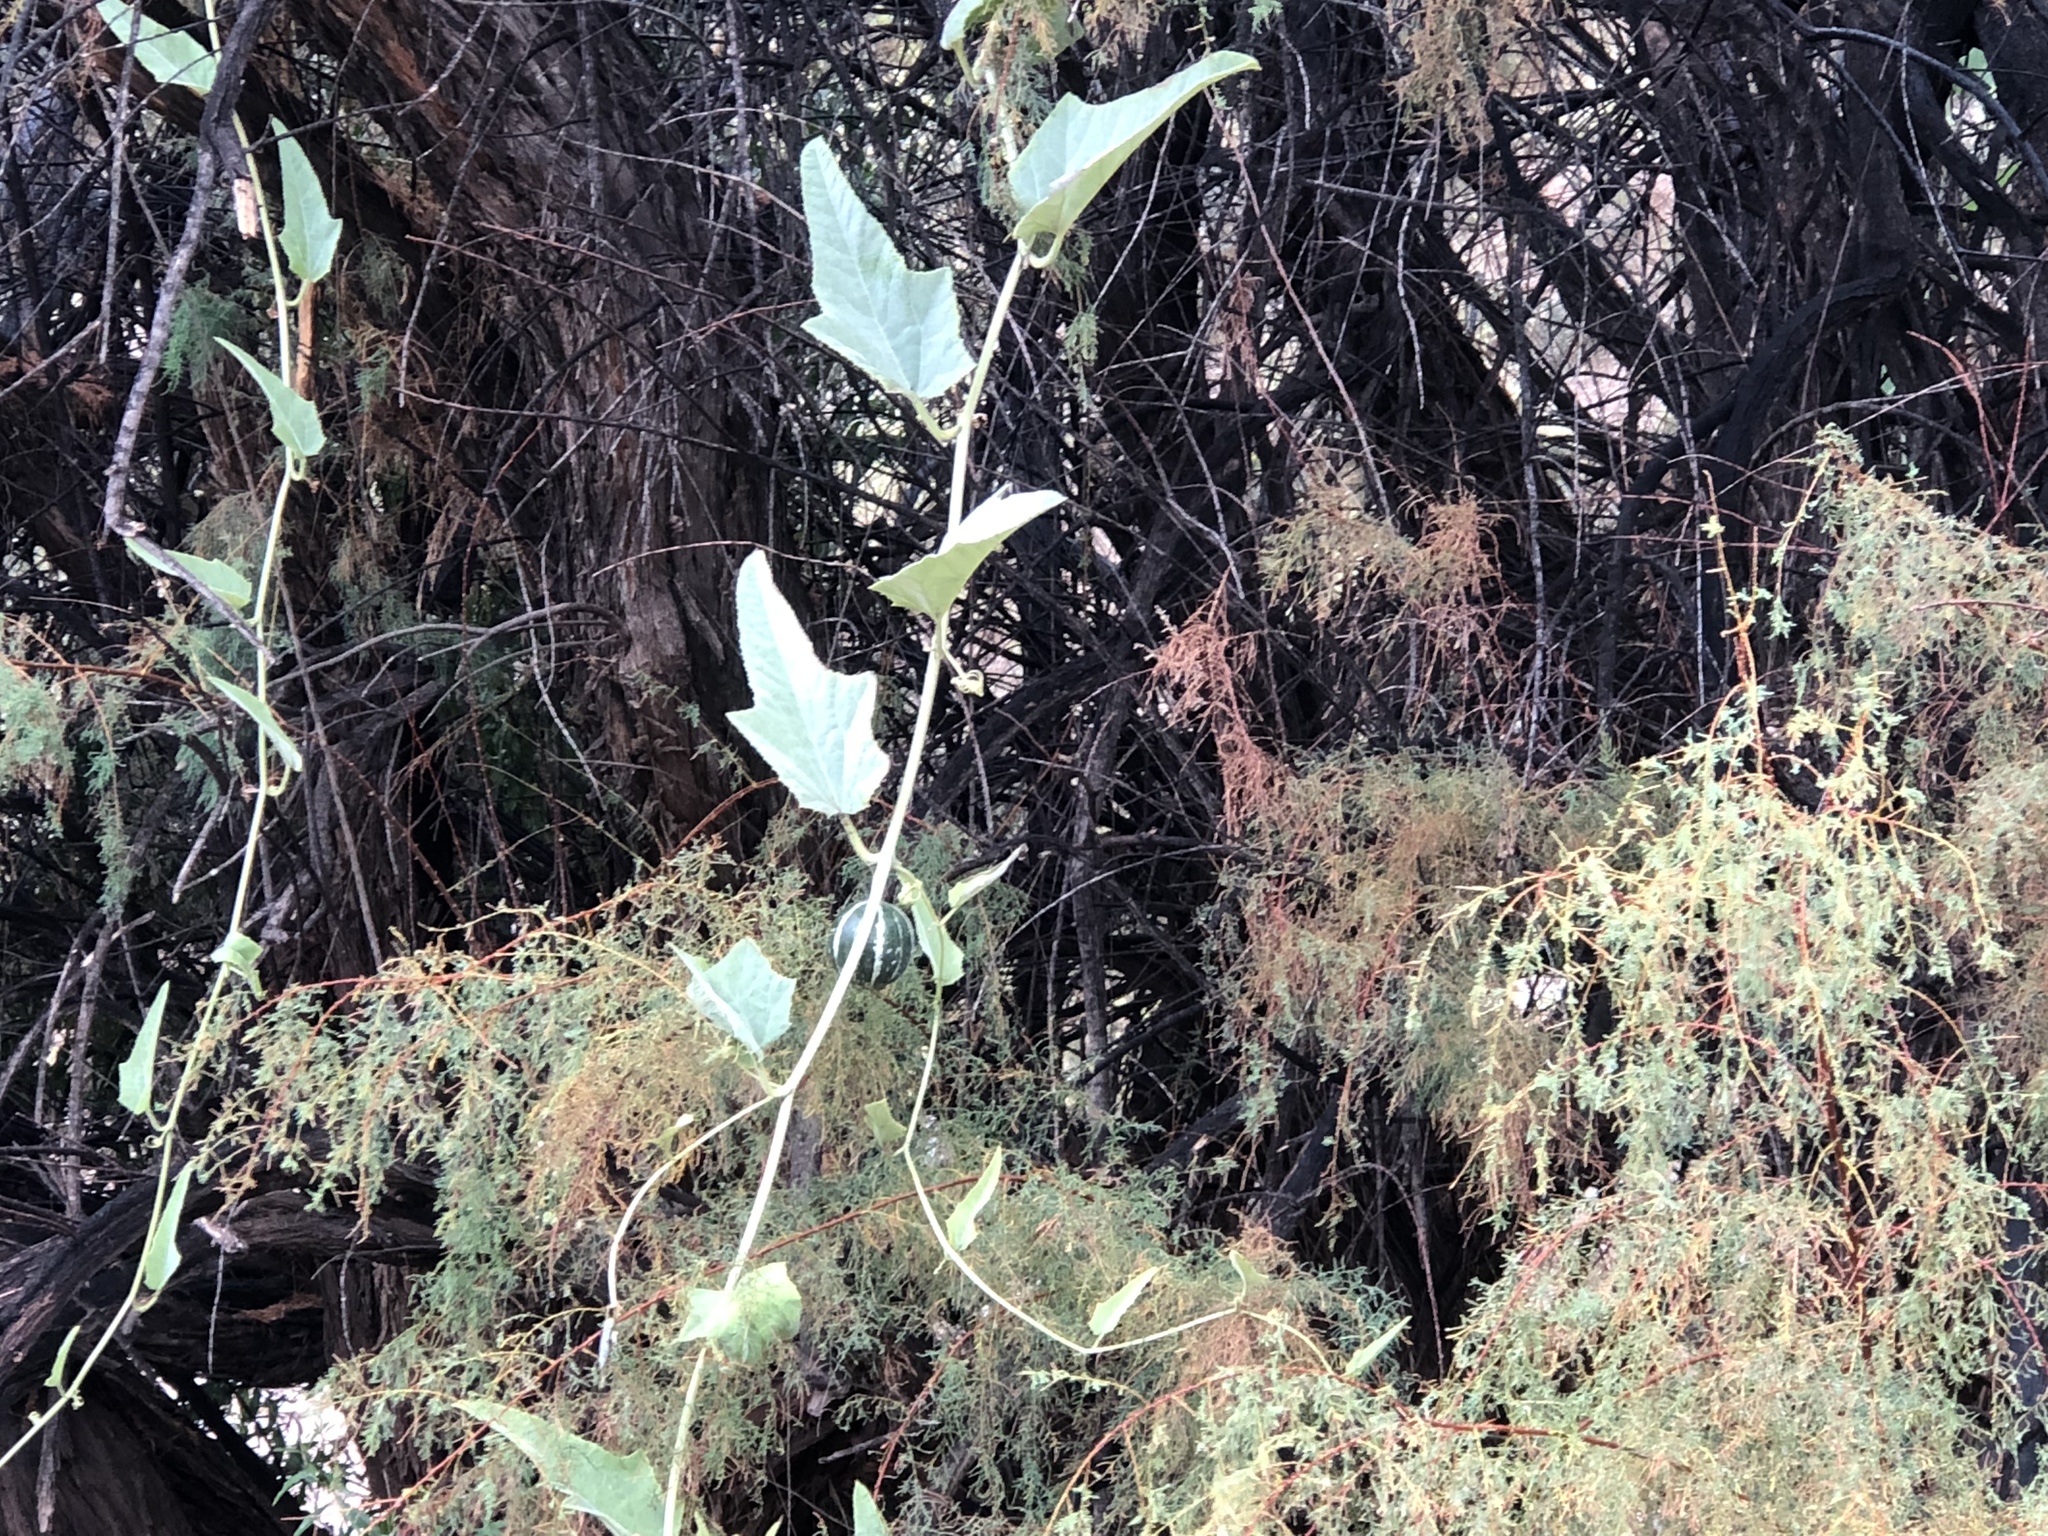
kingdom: Plantae
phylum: Tracheophyta
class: Magnoliopsida
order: Cucurbitales
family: Cucurbitaceae
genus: Cucurbita
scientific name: Cucurbita foetidissima
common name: Buffalo gourd
